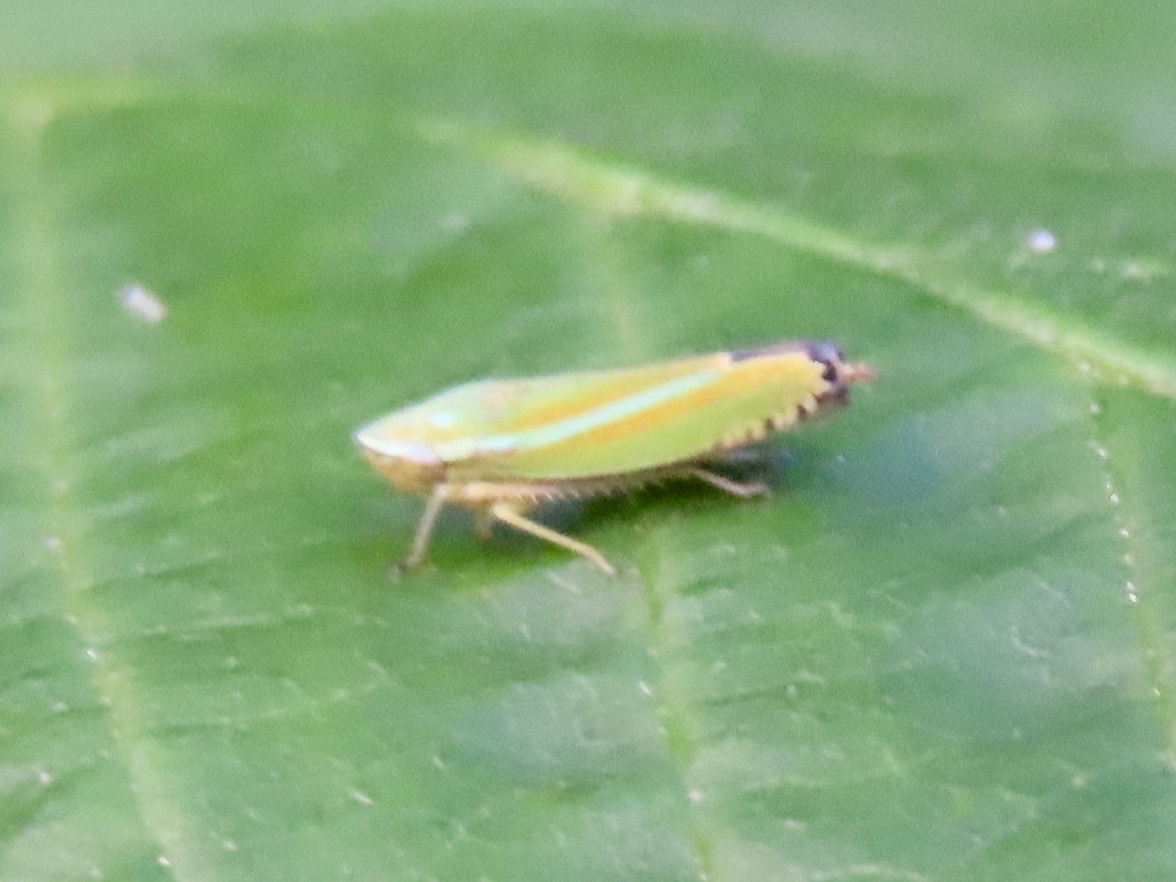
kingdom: Animalia
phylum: Arthropoda
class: Insecta
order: Hemiptera
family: Cicadellidae
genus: Graphocephala
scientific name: Graphocephala versuta
